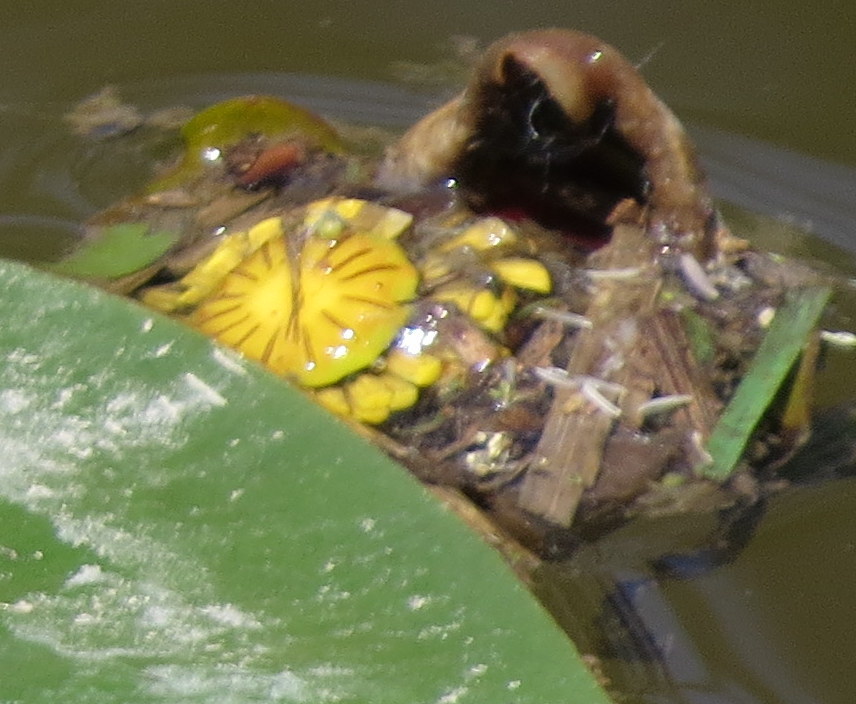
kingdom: Plantae
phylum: Tracheophyta
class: Magnoliopsida
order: Nymphaeales
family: Nymphaeaceae
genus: Nuphar
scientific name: Nuphar variegata
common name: Beaver-root
